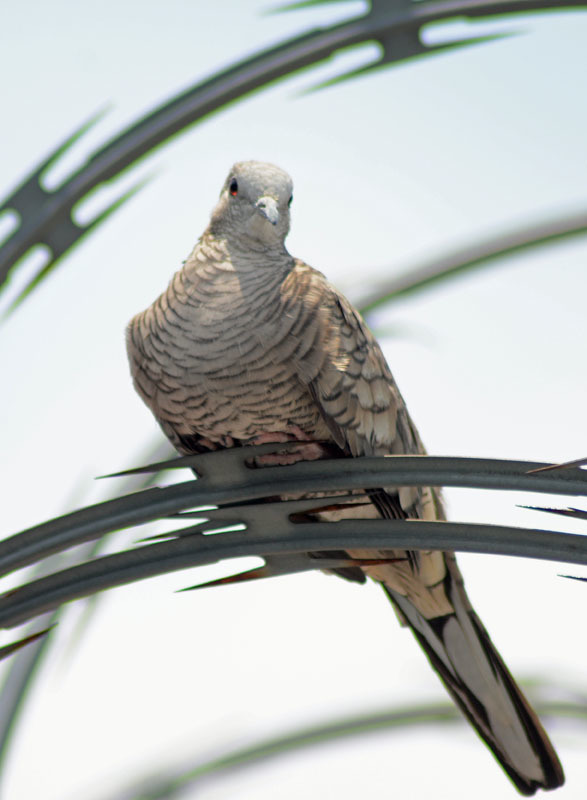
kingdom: Animalia
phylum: Chordata
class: Aves
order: Columbiformes
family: Columbidae
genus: Columbina
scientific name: Columbina inca
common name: Inca dove
